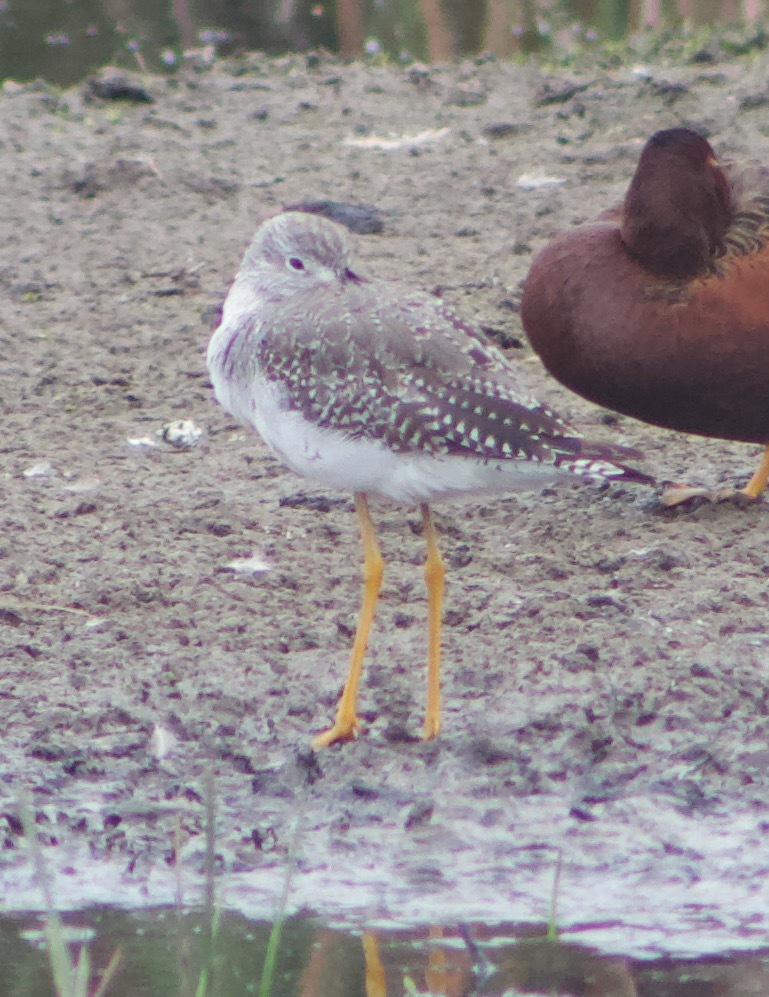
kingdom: Animalia
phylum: Chordata
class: Aves
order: Charadriiformes
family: Scolopacidae
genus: Tringa
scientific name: Tringa melanoleuca
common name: Greater yellowlegs
